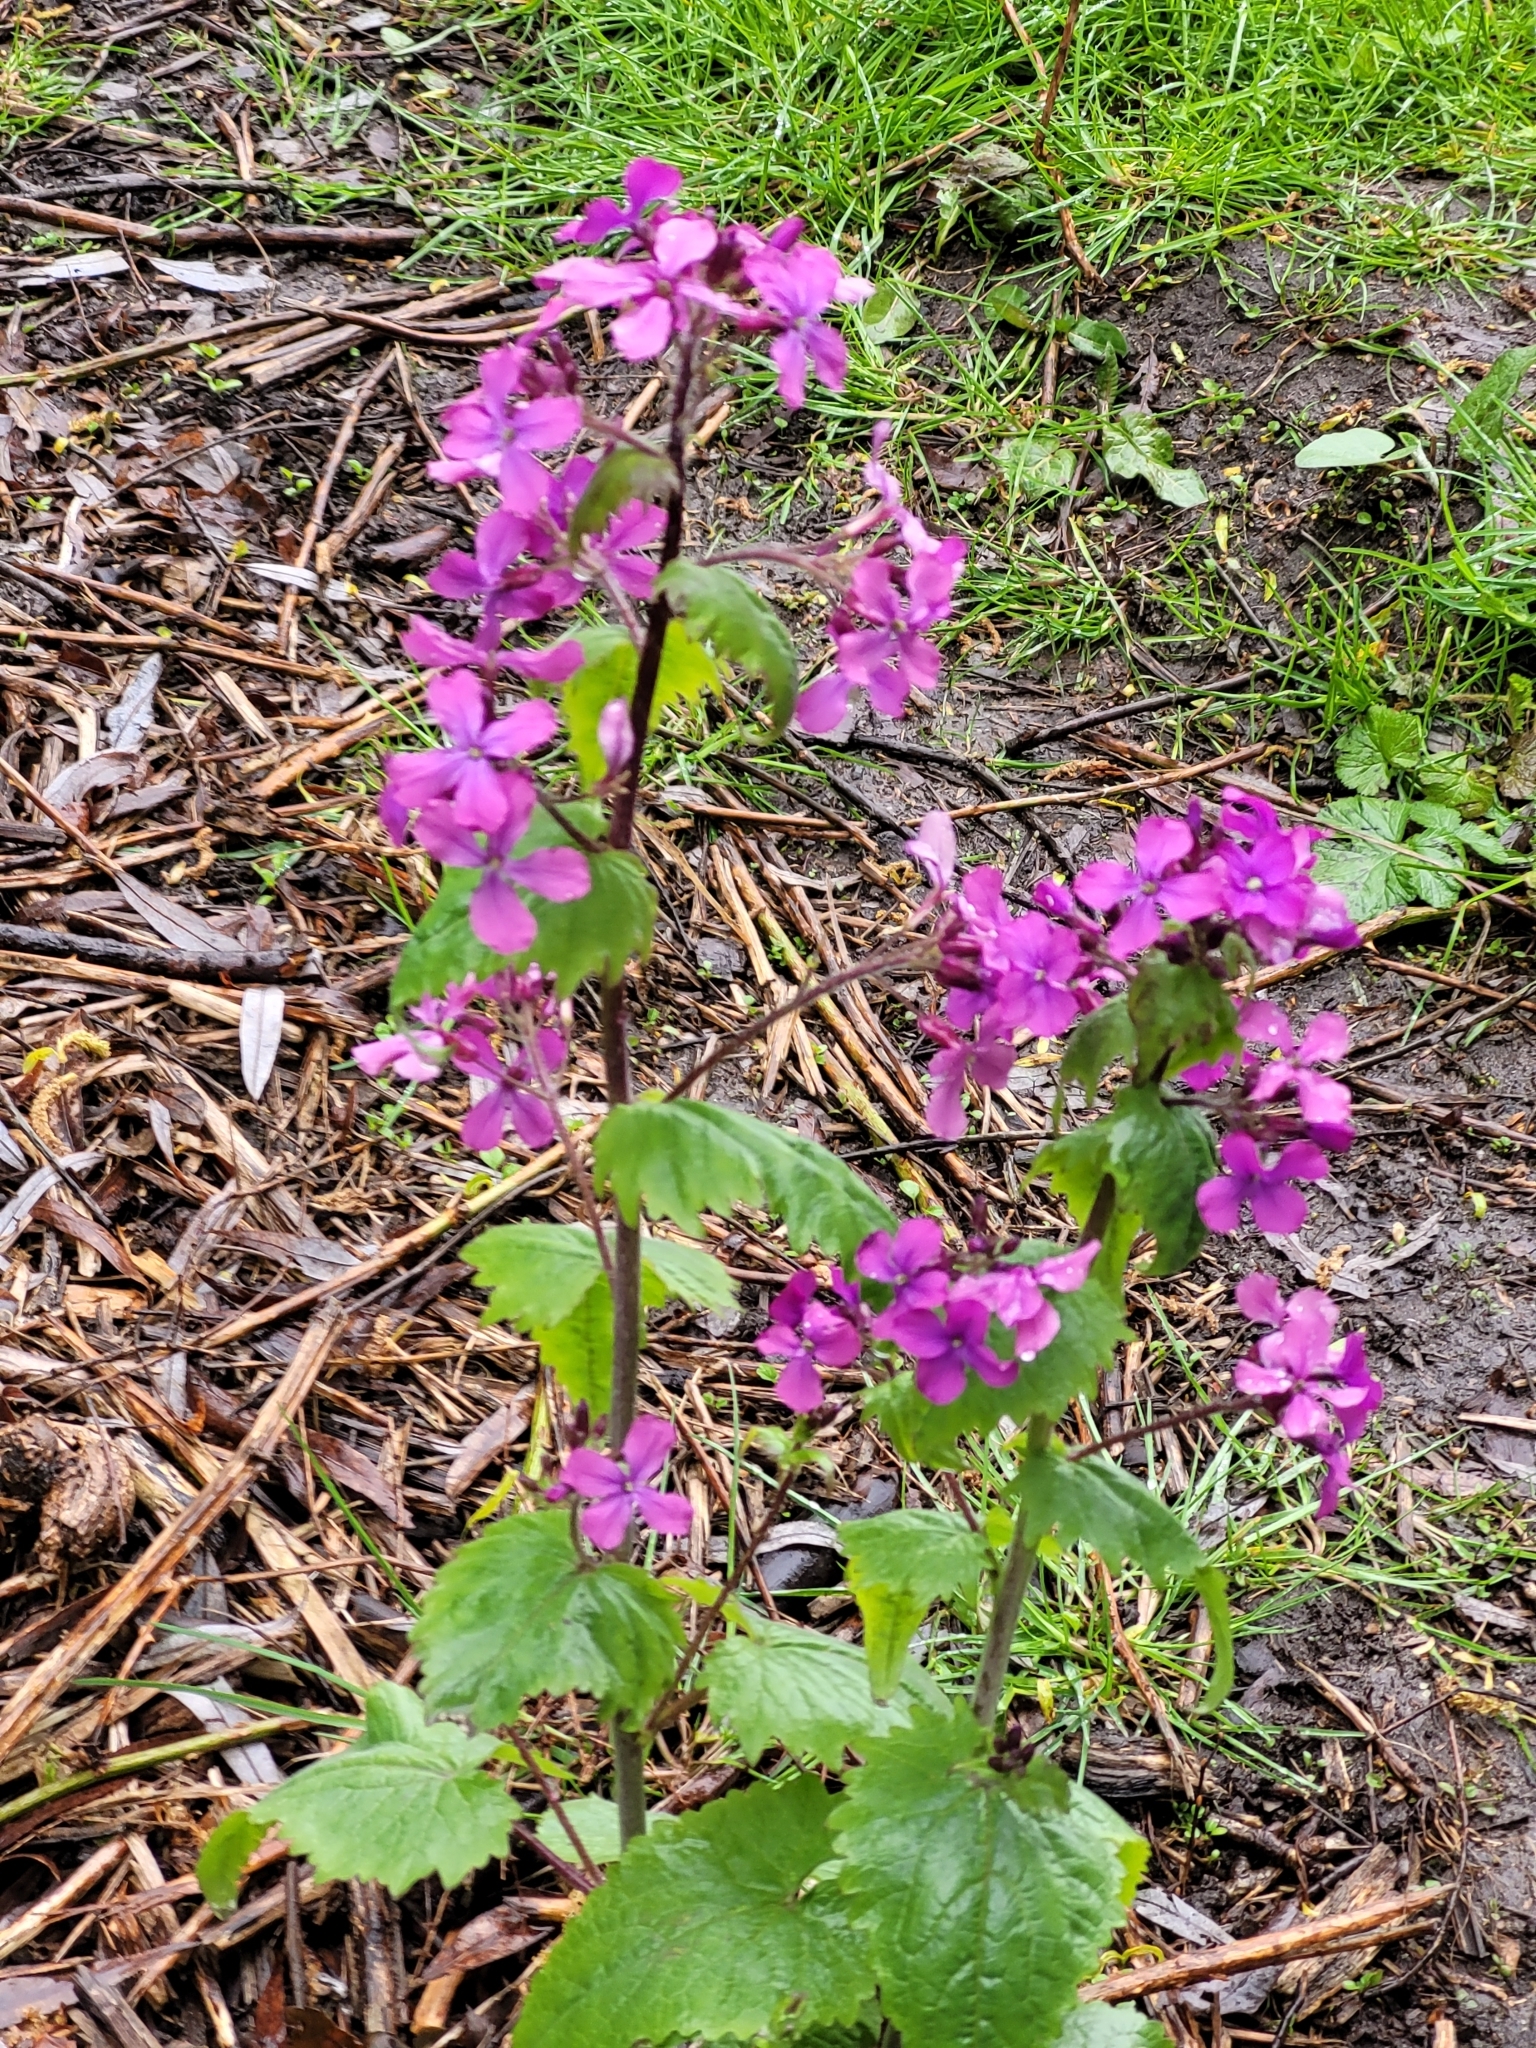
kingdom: Plantae
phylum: Tracheophyta
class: Magnoliopsida
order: Brassicales
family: Brassicaceae
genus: Lunaria
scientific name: Lunaria annua
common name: Honesty
